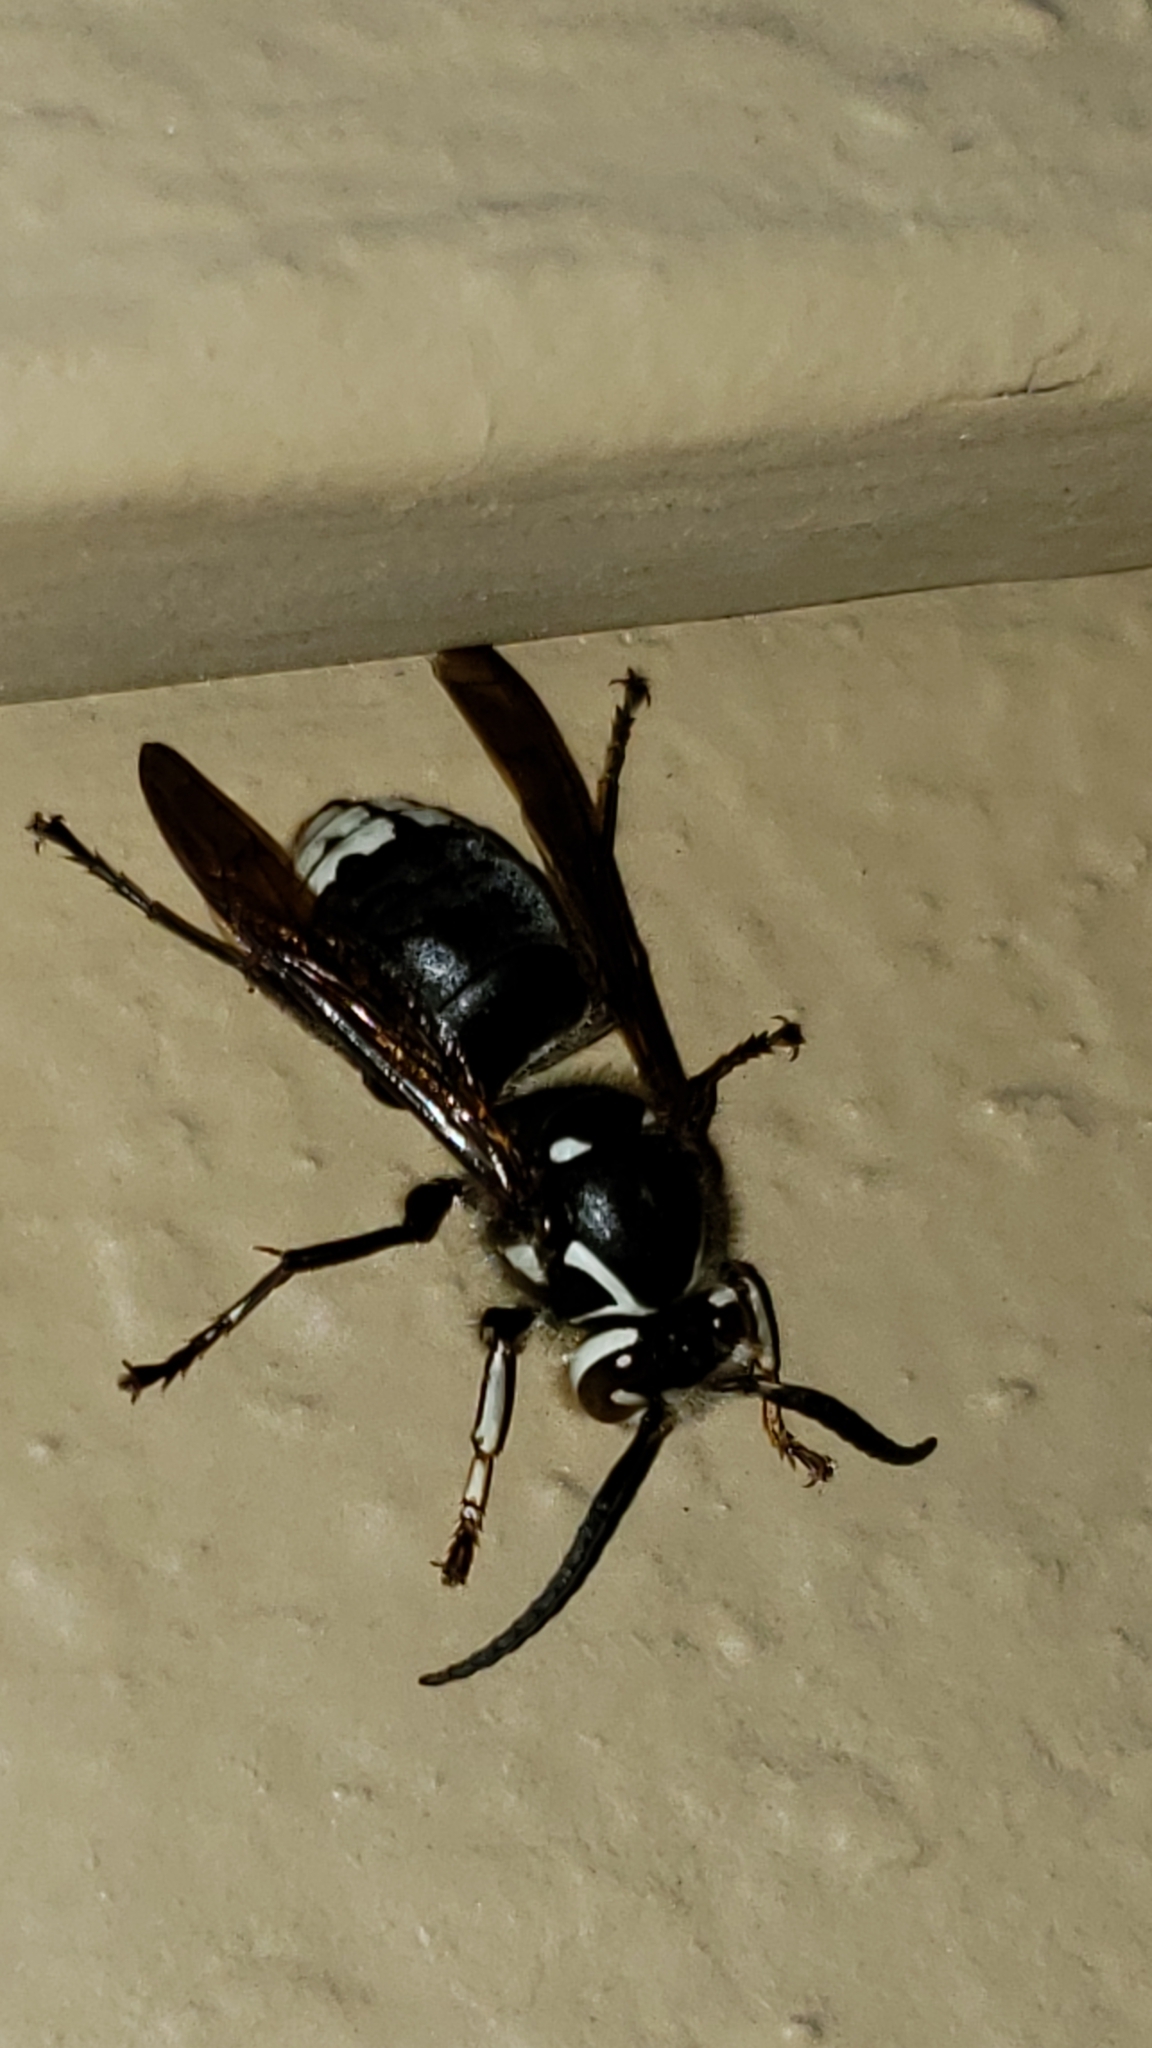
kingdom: Animalia
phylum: Arthropoda
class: Insecta
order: Hymenoptera
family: Vespidae
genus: Dolichovespula
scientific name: Dolichovespula maculata
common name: Bald-faced hornet
